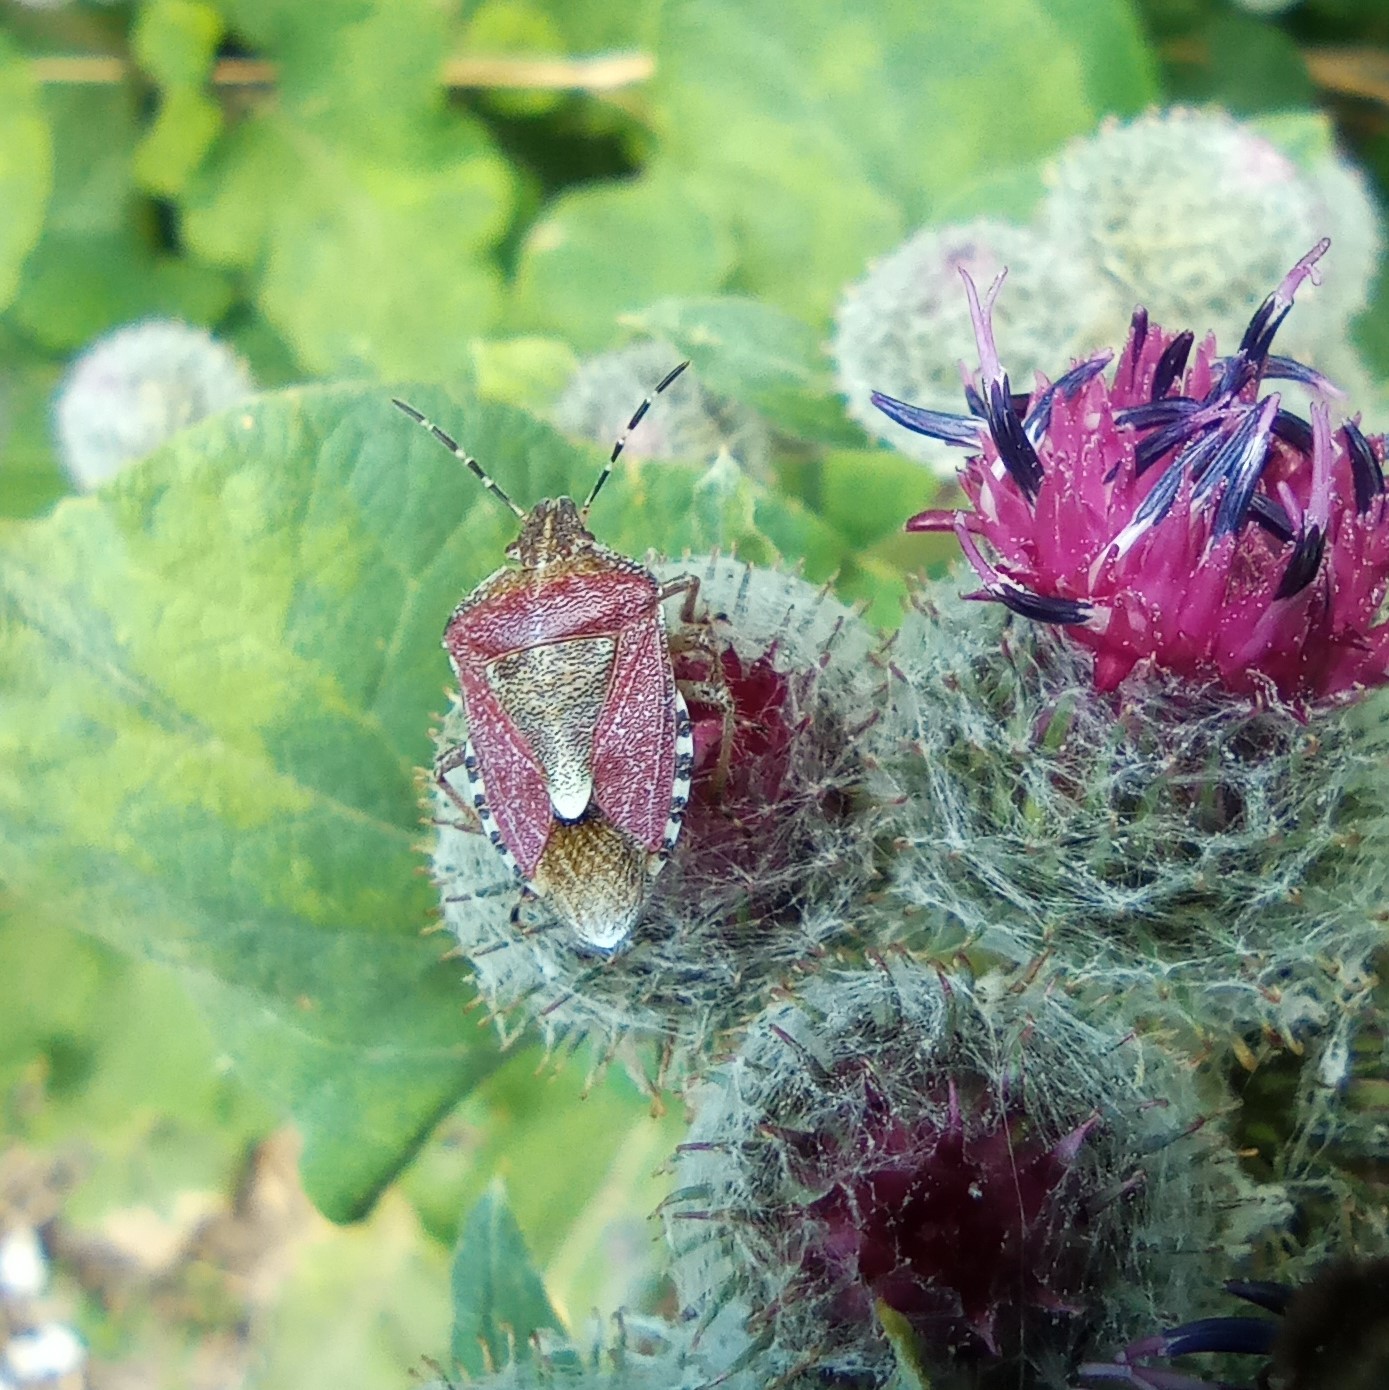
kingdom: Animalia
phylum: Arthropoda
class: Insecta
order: Hemiptera
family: Pentatomidae
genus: Dolycoris
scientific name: Dolycoris baccarum
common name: Sloe bug
